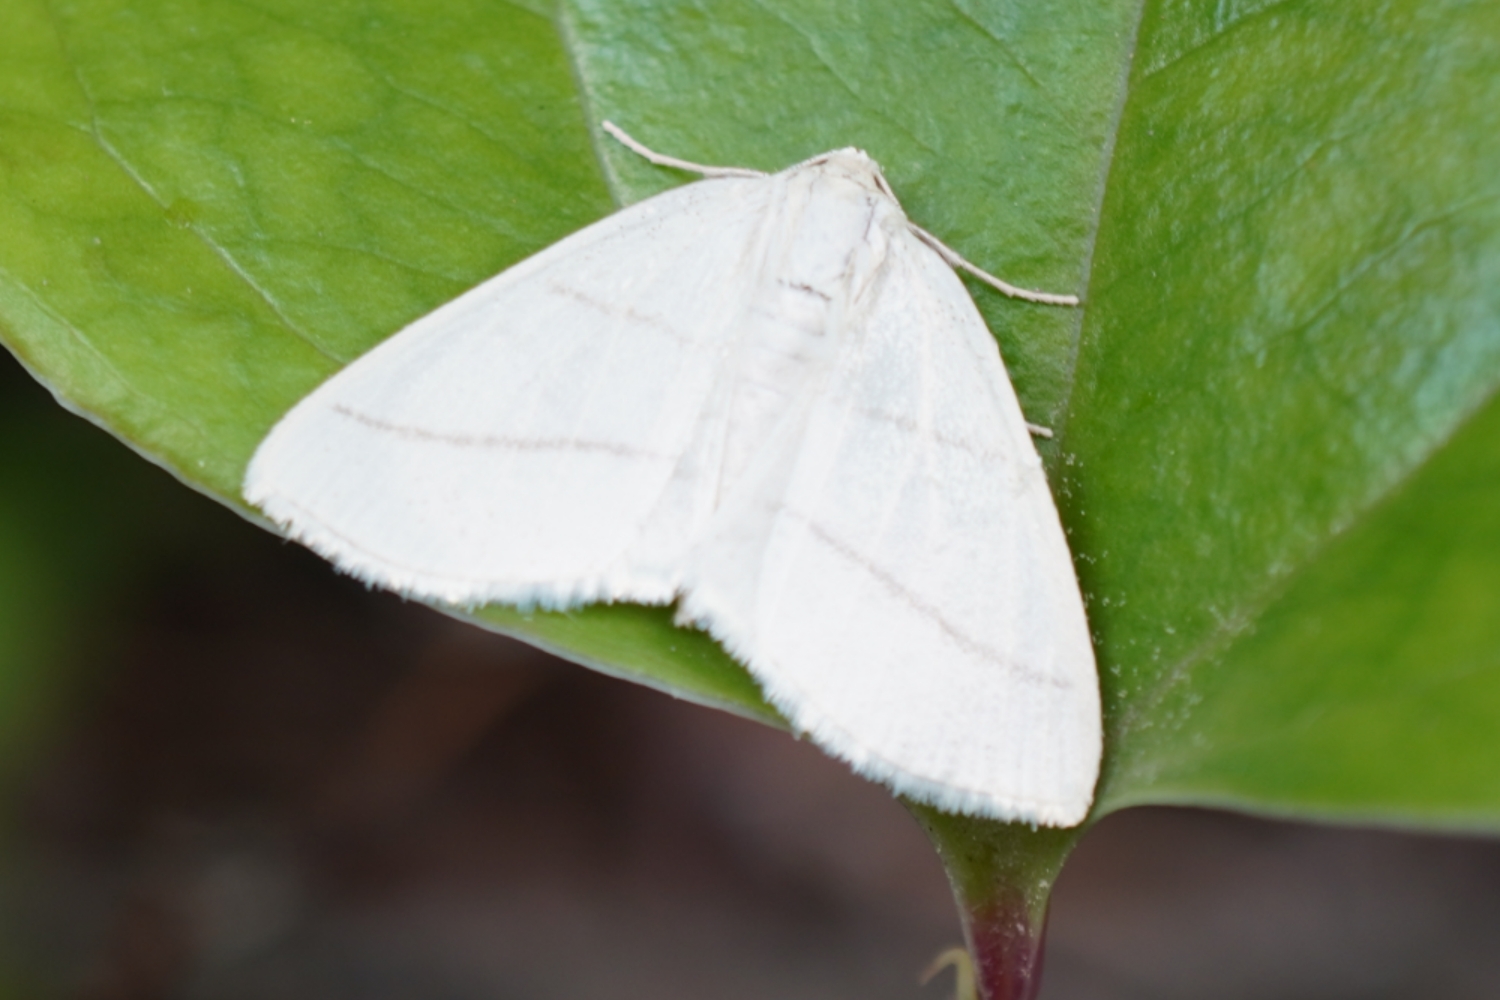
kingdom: Animalia
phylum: Arthropoda
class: Insecta
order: Lepidoptera
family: Geometridae
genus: Parabapta
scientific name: Parabapta clarissa
